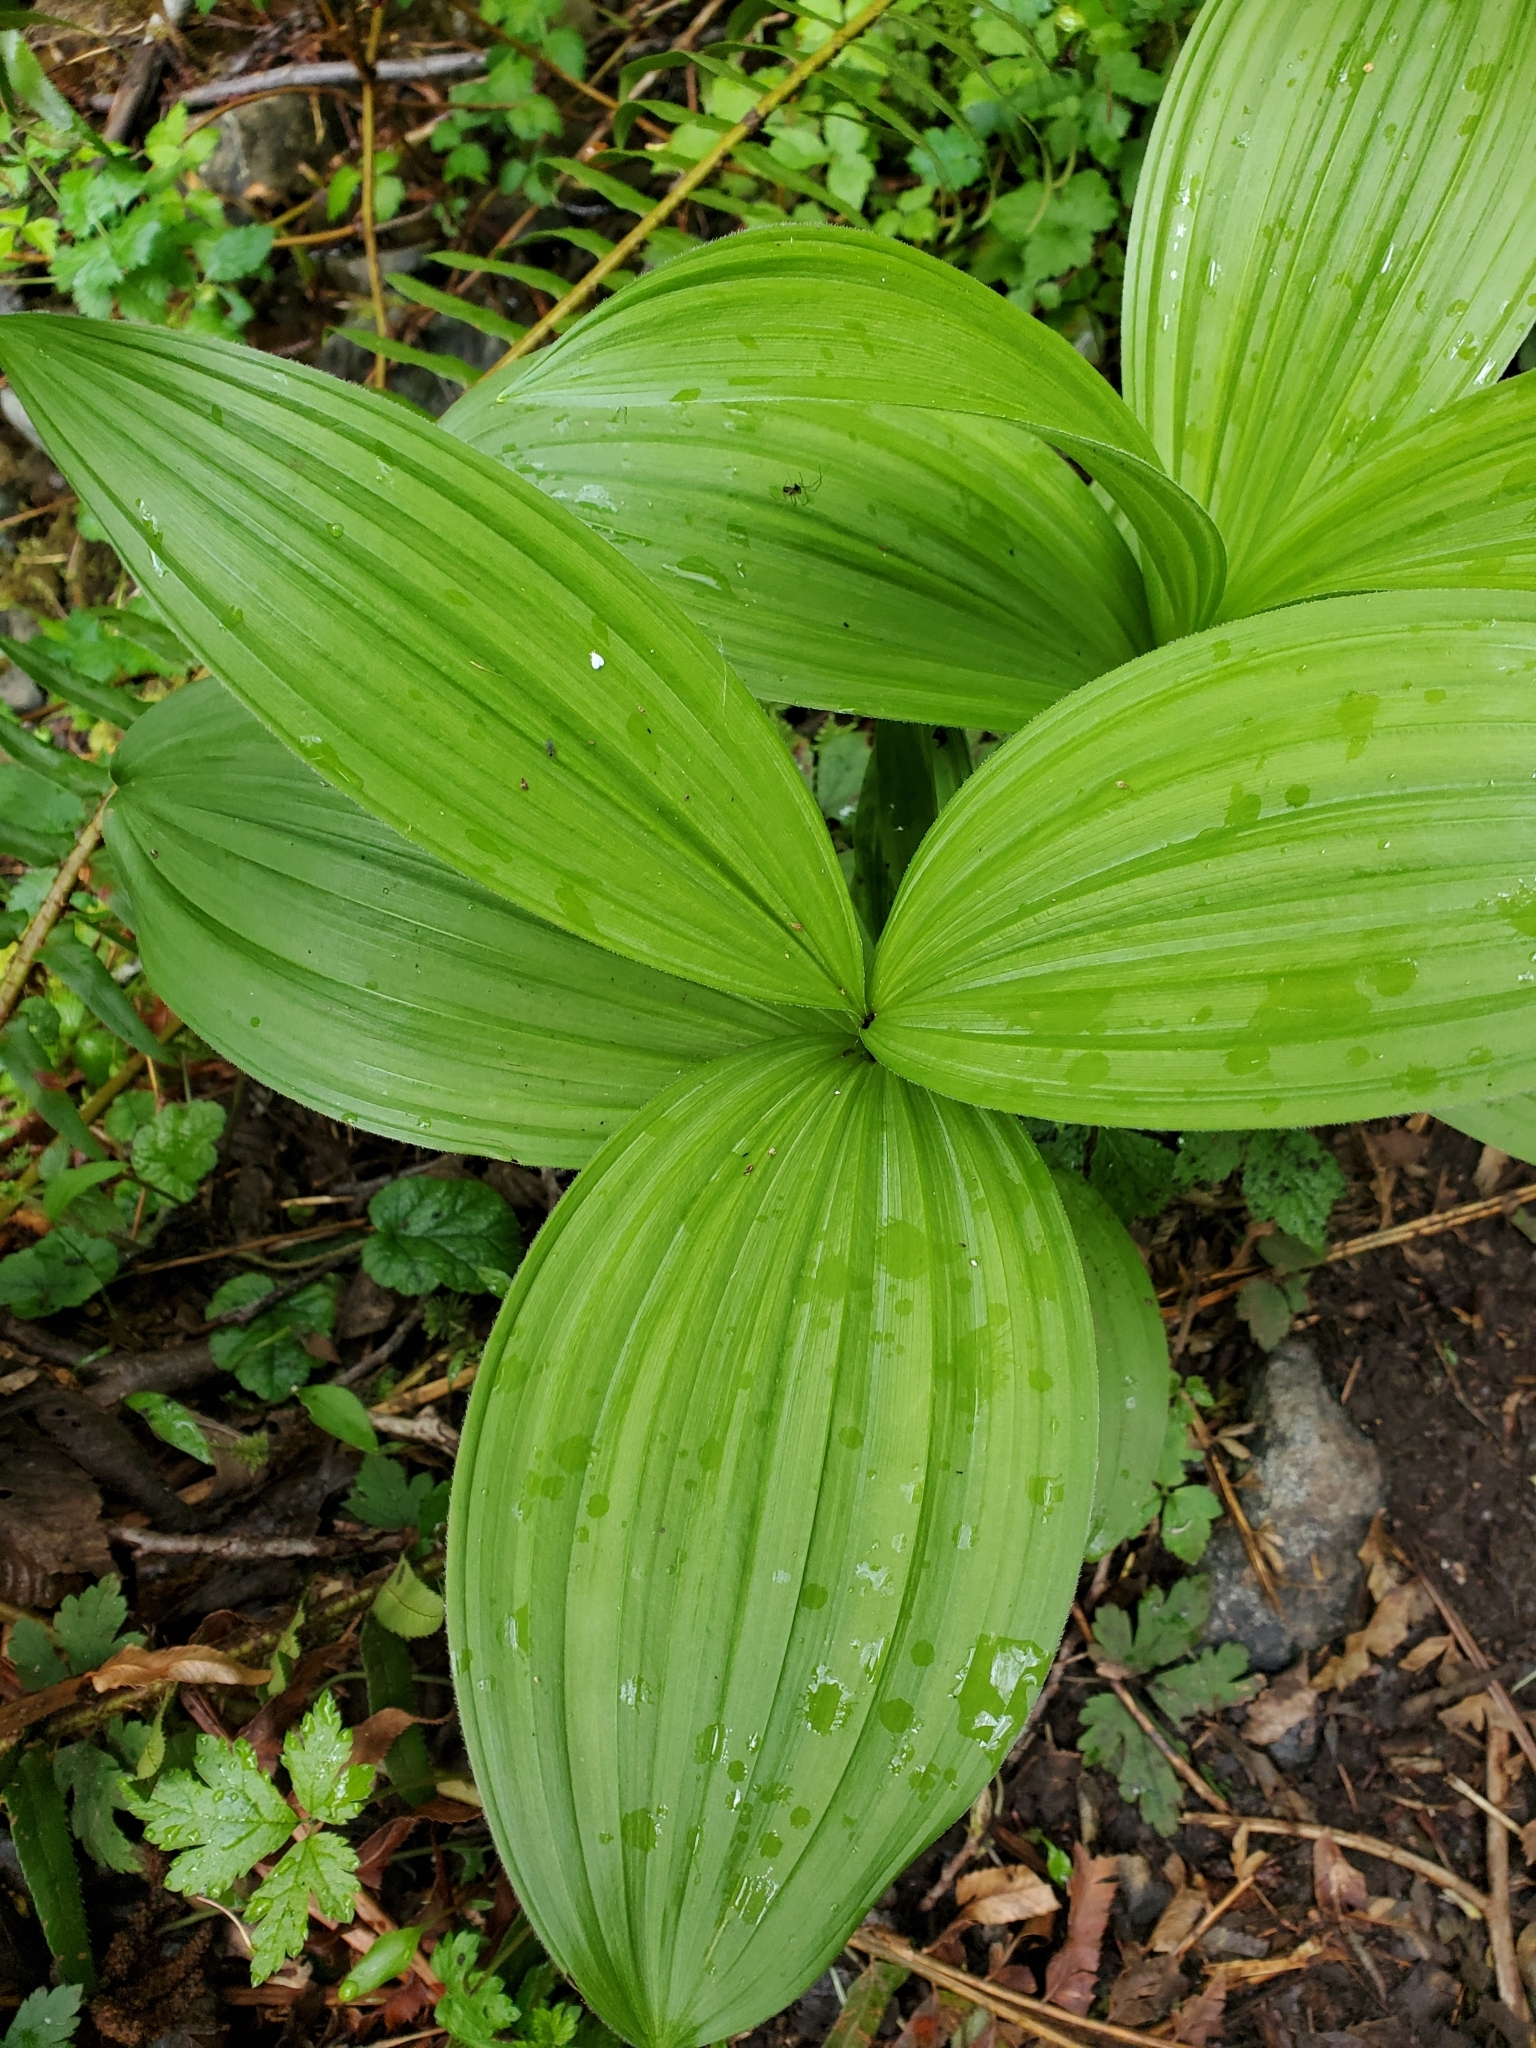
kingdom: Plantae
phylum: Tracheophyta
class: Liliopsida
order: Liliales
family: Melanthiaceae
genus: Veratrum
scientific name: Veratrum viride
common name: American false hellebore
